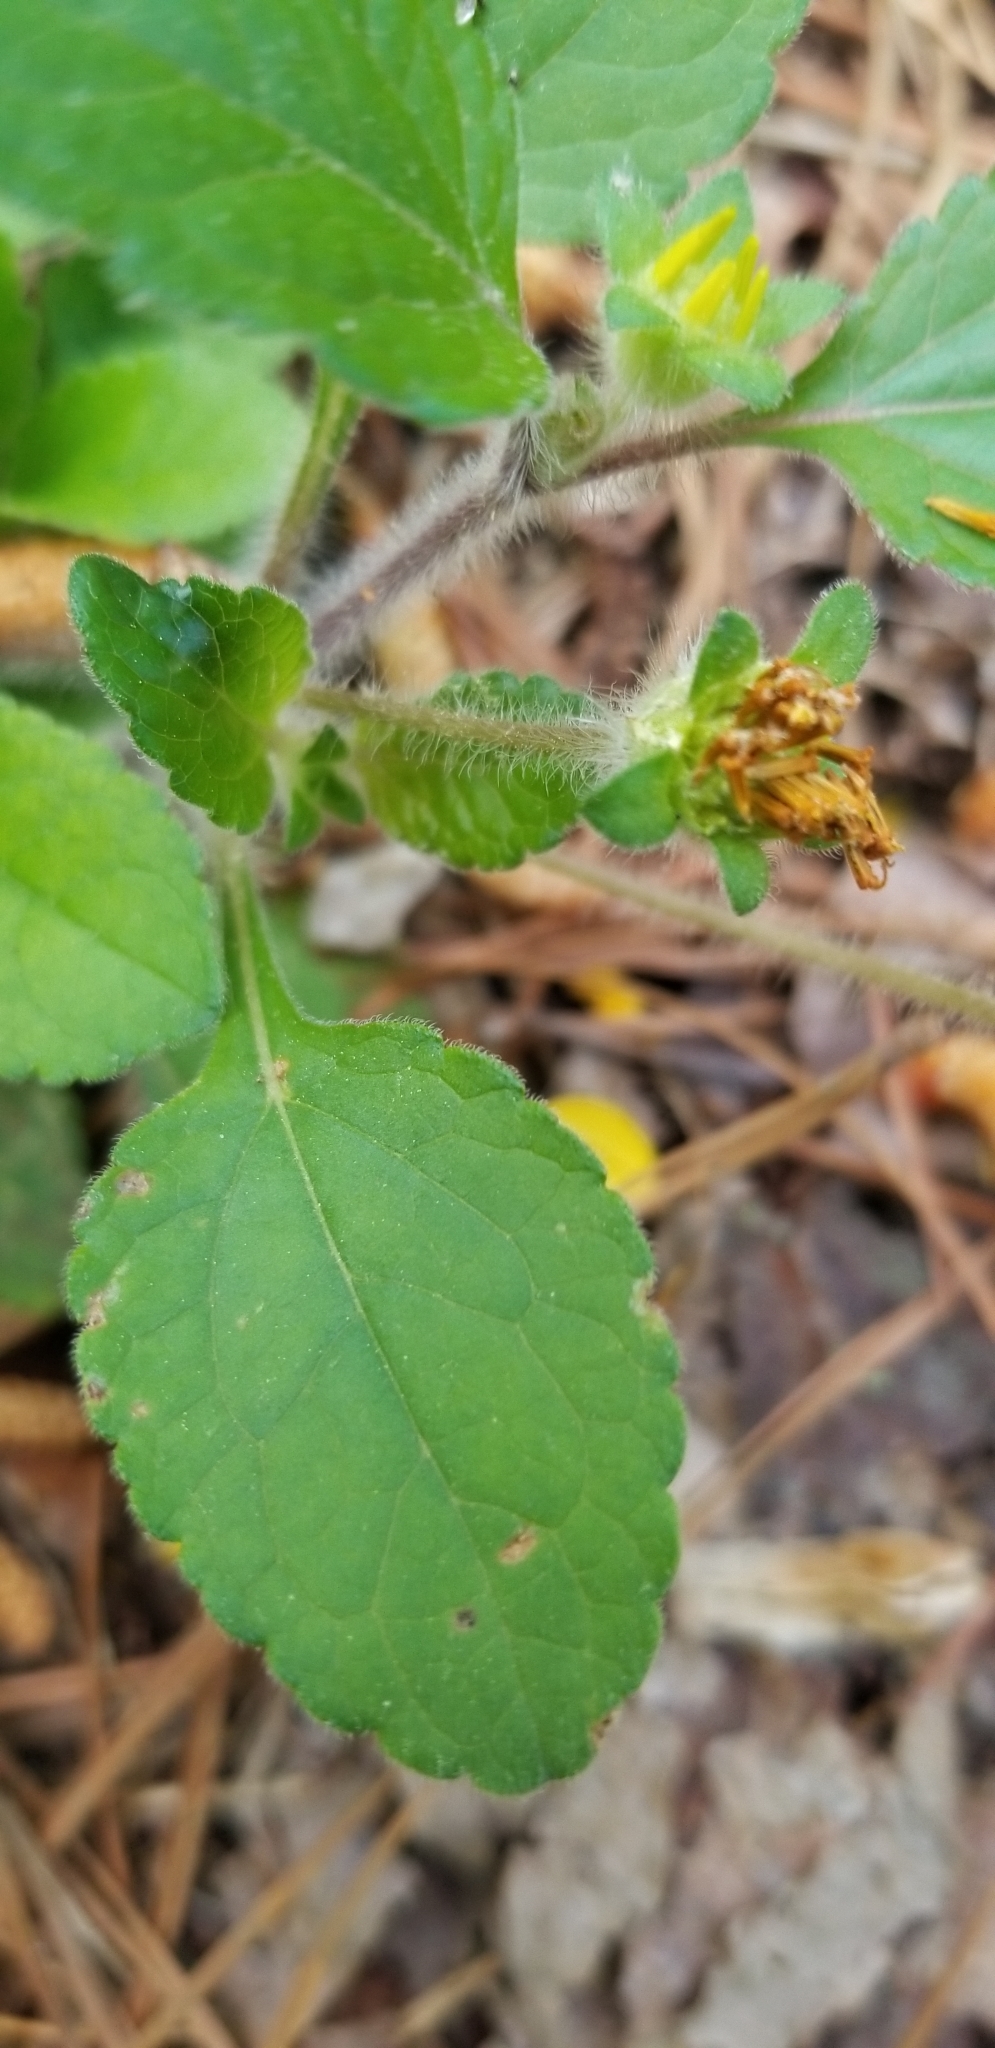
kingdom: Plantae
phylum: Tracheophyta
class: Magnoliopsida
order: Asterales
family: Asteraceae
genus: Chrysogonum
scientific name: Chrysogonum virginianum
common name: Golden-knee
